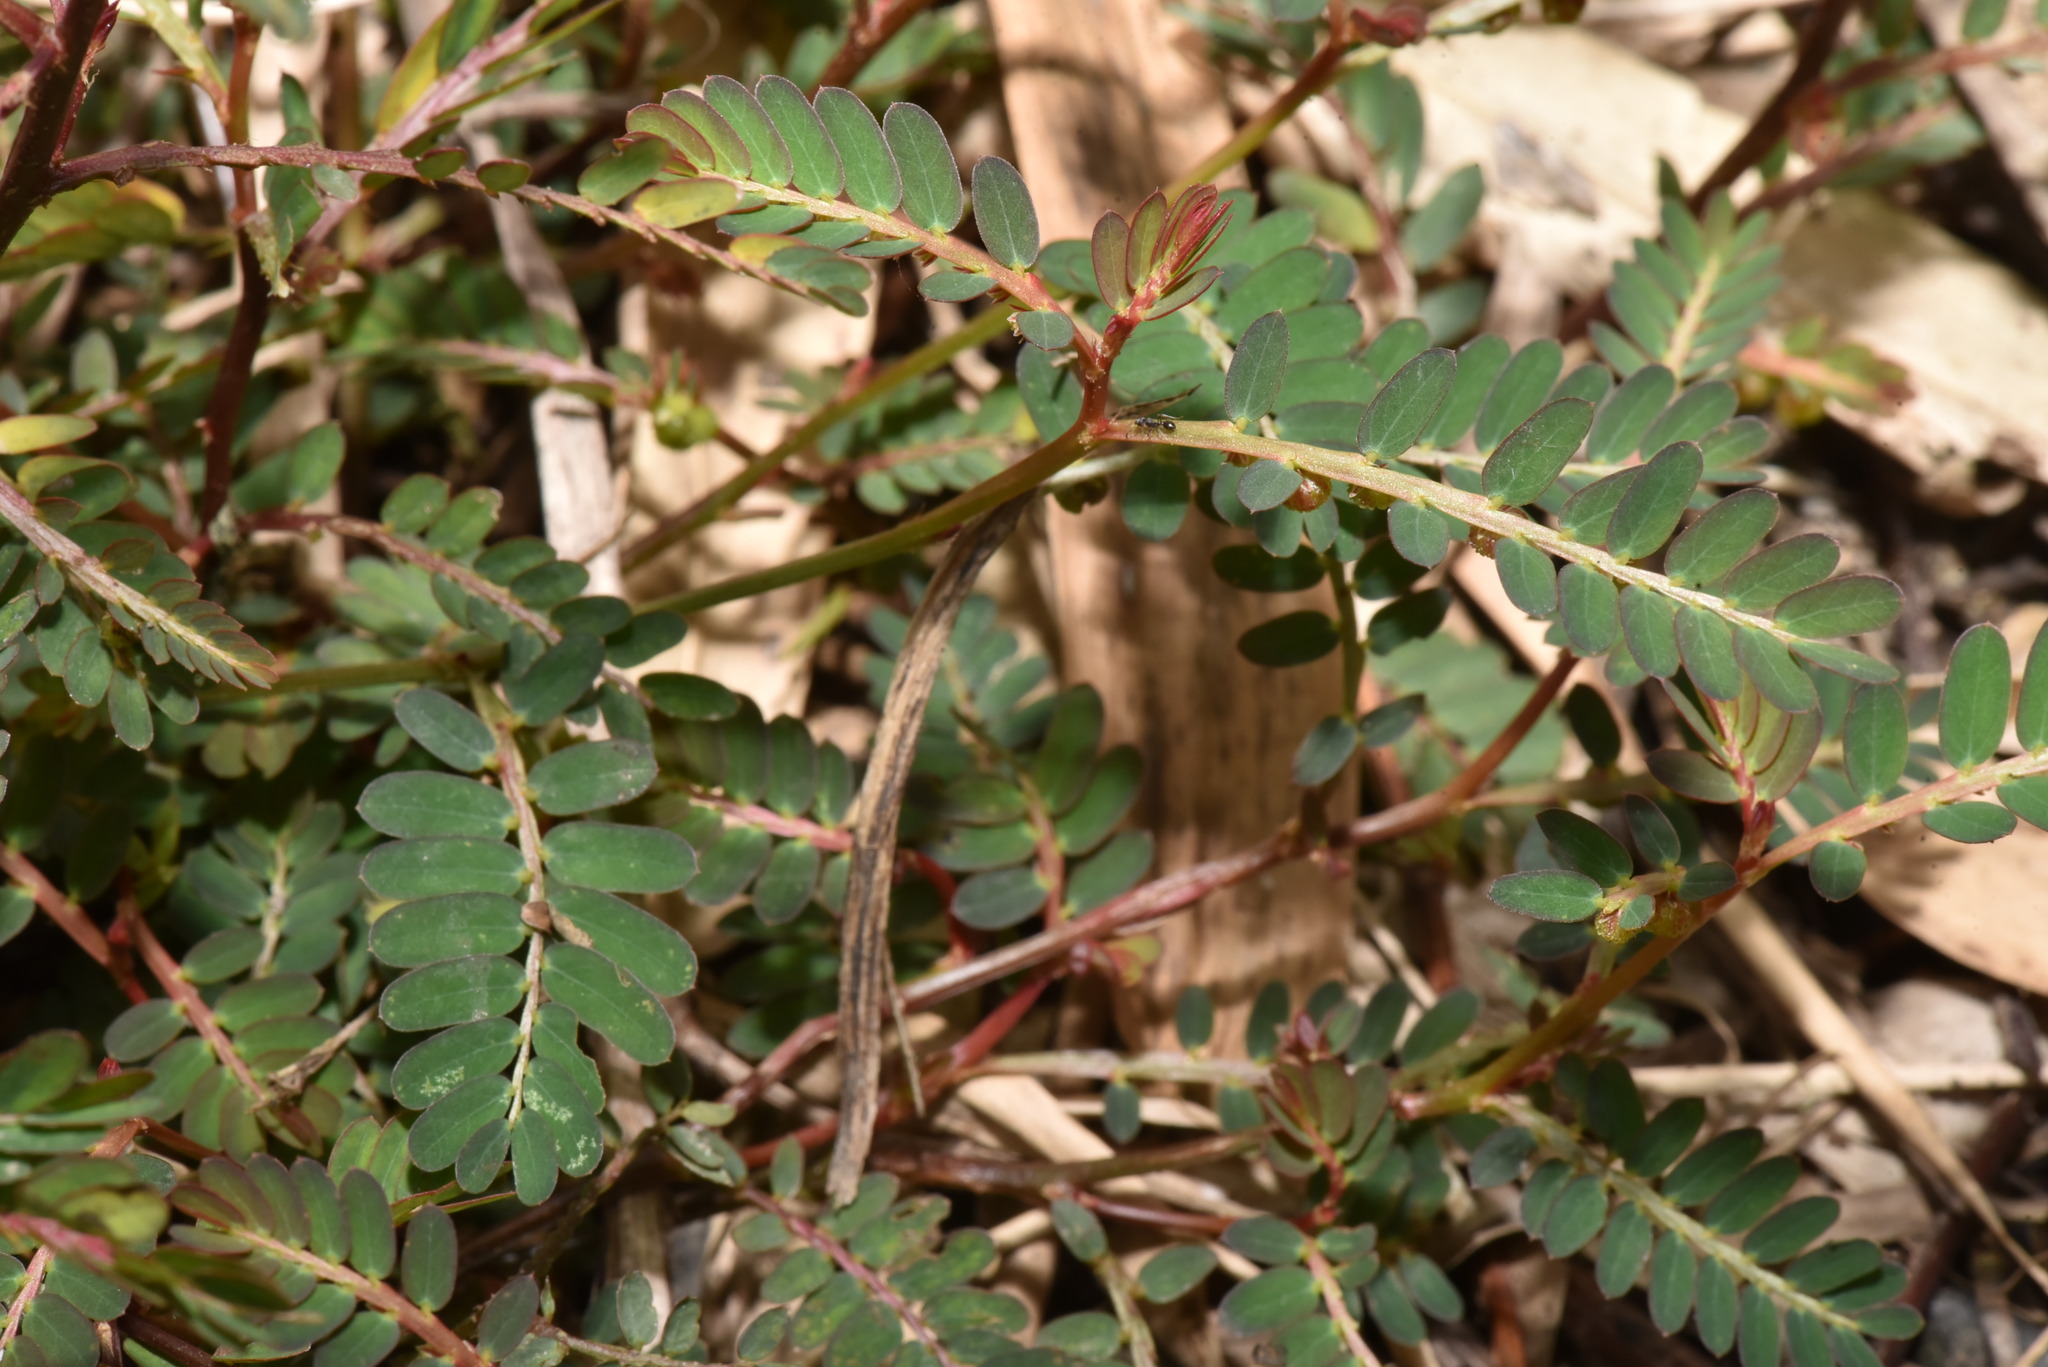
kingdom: Plantae
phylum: Tracheophyta
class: Magnoliopsida
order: Malpighiales
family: Phyllanthaceae
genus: Phyllanthus
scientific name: Phyllanthus urinaria
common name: Chamber bitter
